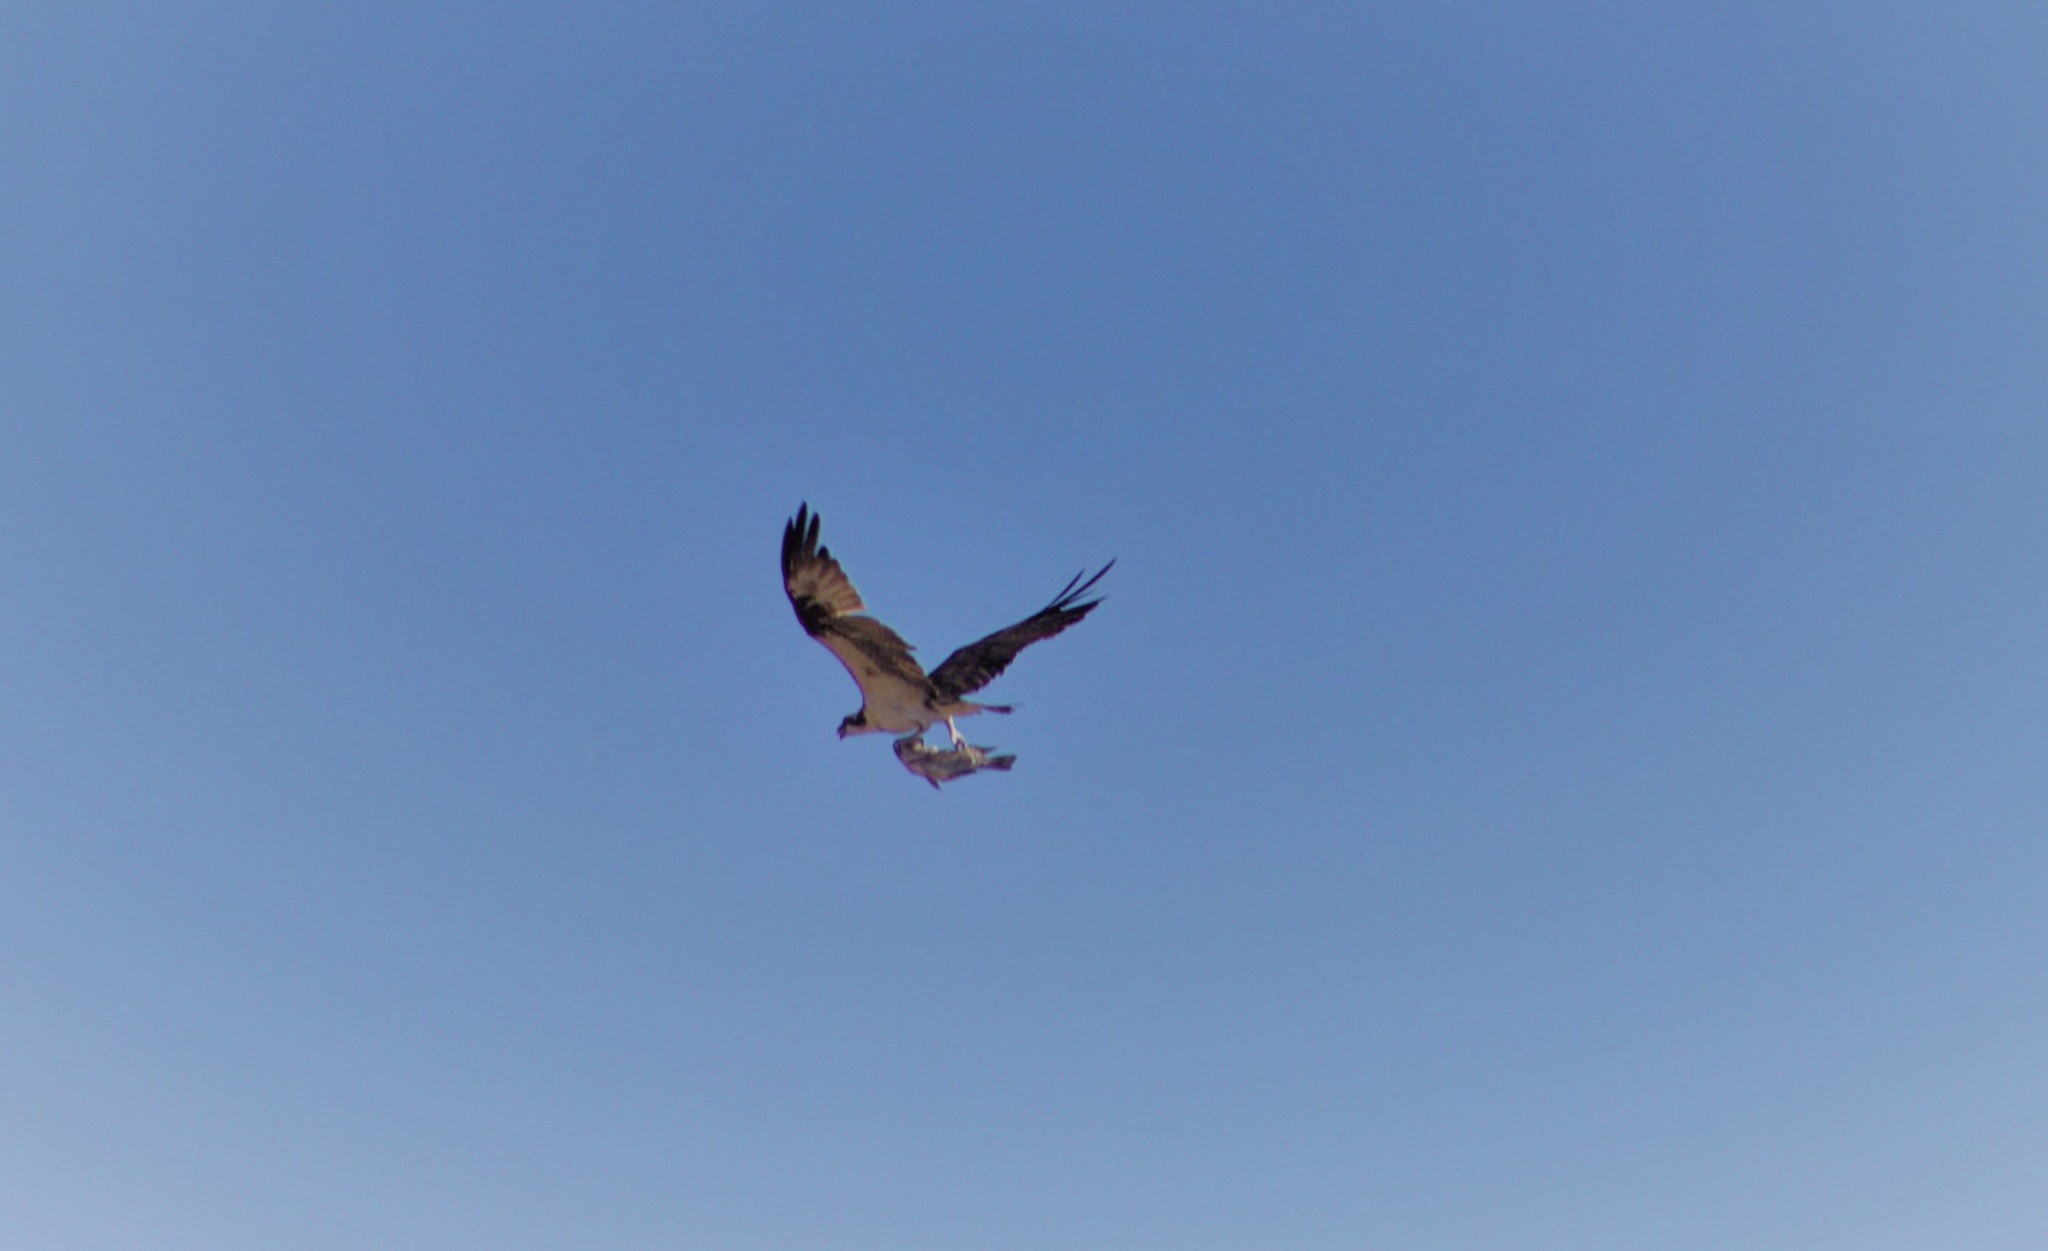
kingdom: Animalia
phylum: Chordata
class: Aves
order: Accipitriformes
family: Pandionidae
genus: Pandion
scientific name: Pandion haliaetus
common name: Osprey
